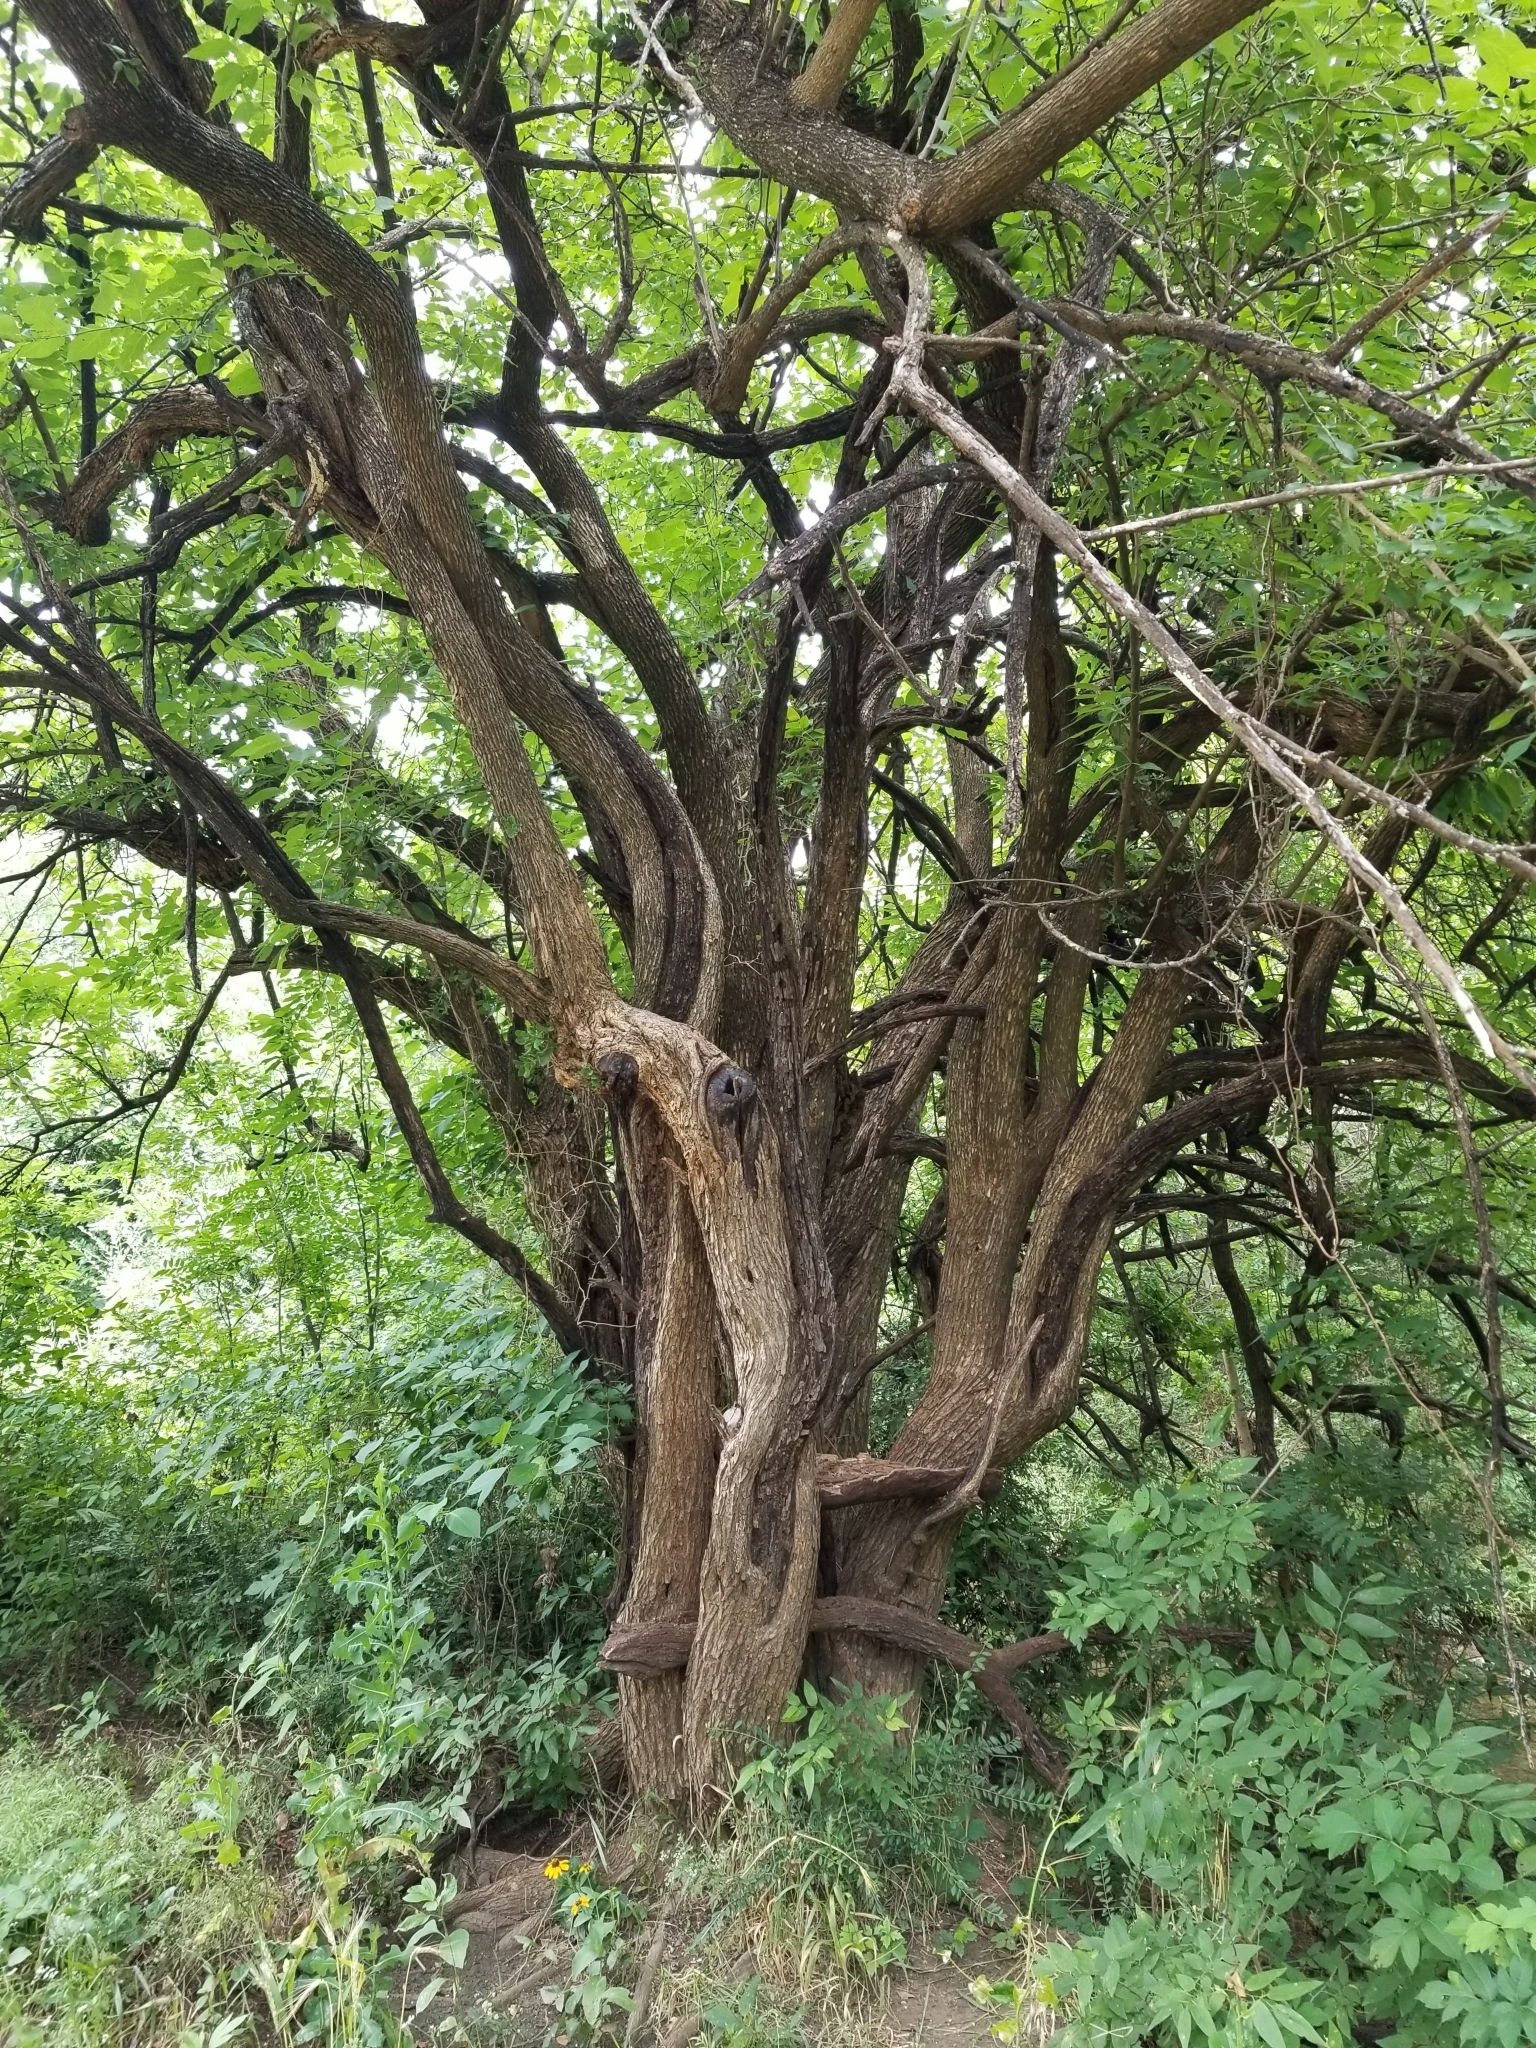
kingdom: Plantae
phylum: Tracheophyta
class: Magnoliopsida
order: Rosales
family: Moraceae
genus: Maclura
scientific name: Maclura pomifera
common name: Osage-orange
